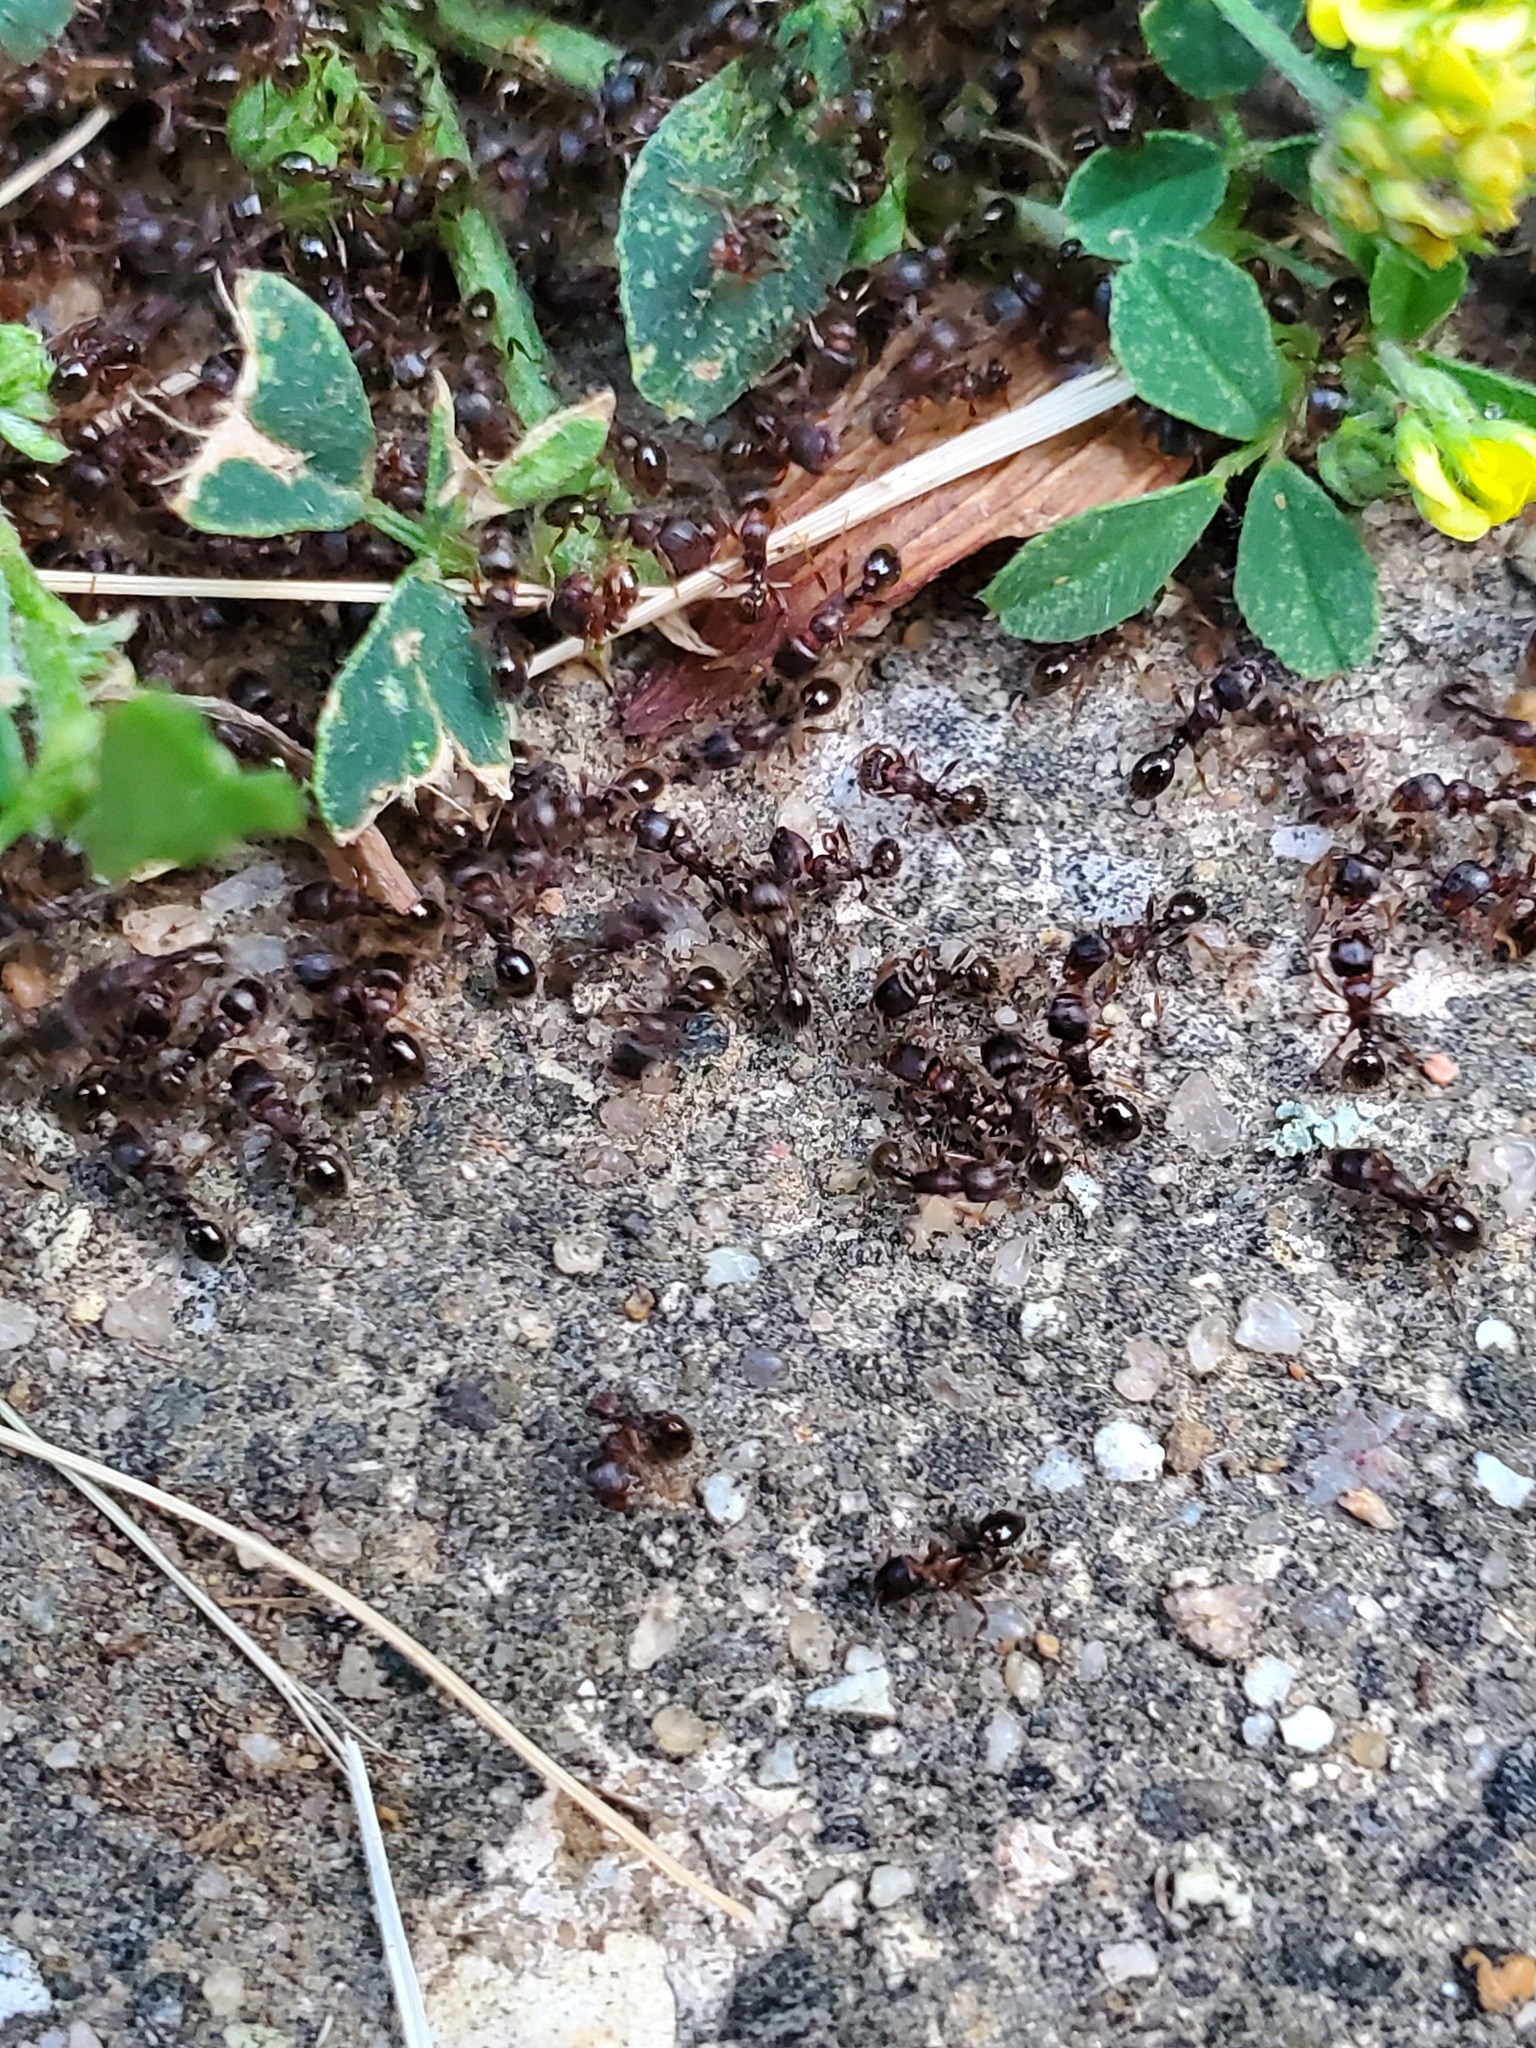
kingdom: Animalia
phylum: Arthropoda
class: Insecta
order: Hymenoptera
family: Formicidae
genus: Tetramorium
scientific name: Tetramorium immigrans
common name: Pavement ant
